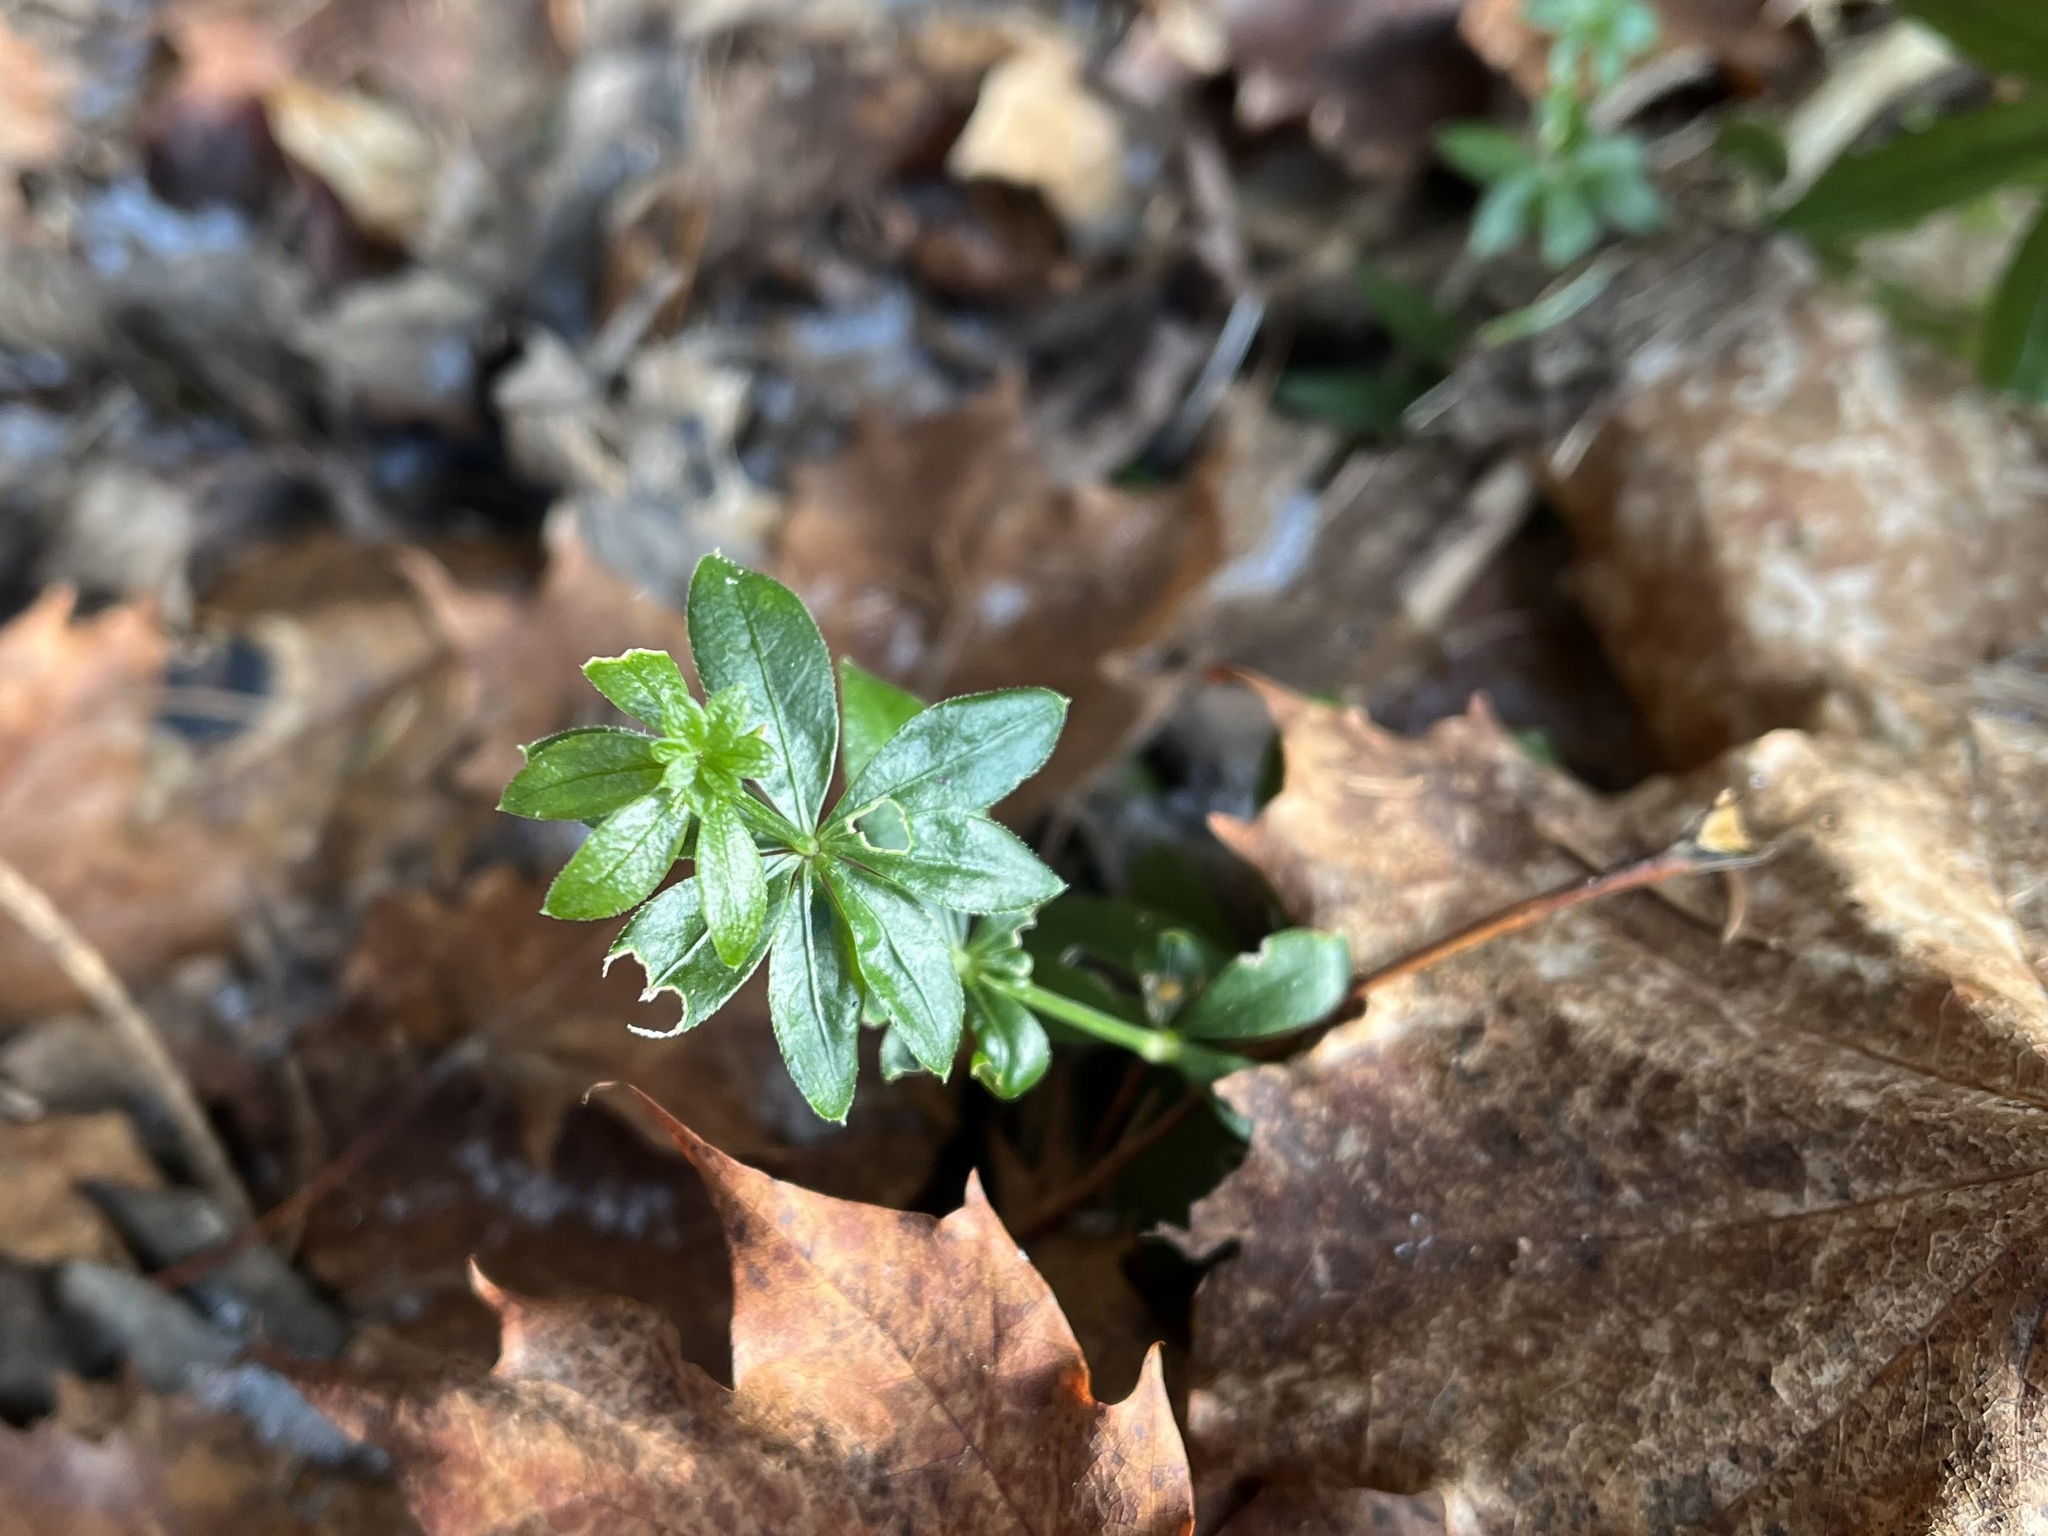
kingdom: Plantae
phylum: Tracheophyta
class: Magnoliopsida
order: Gentianales
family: Rubiaceae
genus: Galium
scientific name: Galium odoratum
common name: Sweet woodruff
